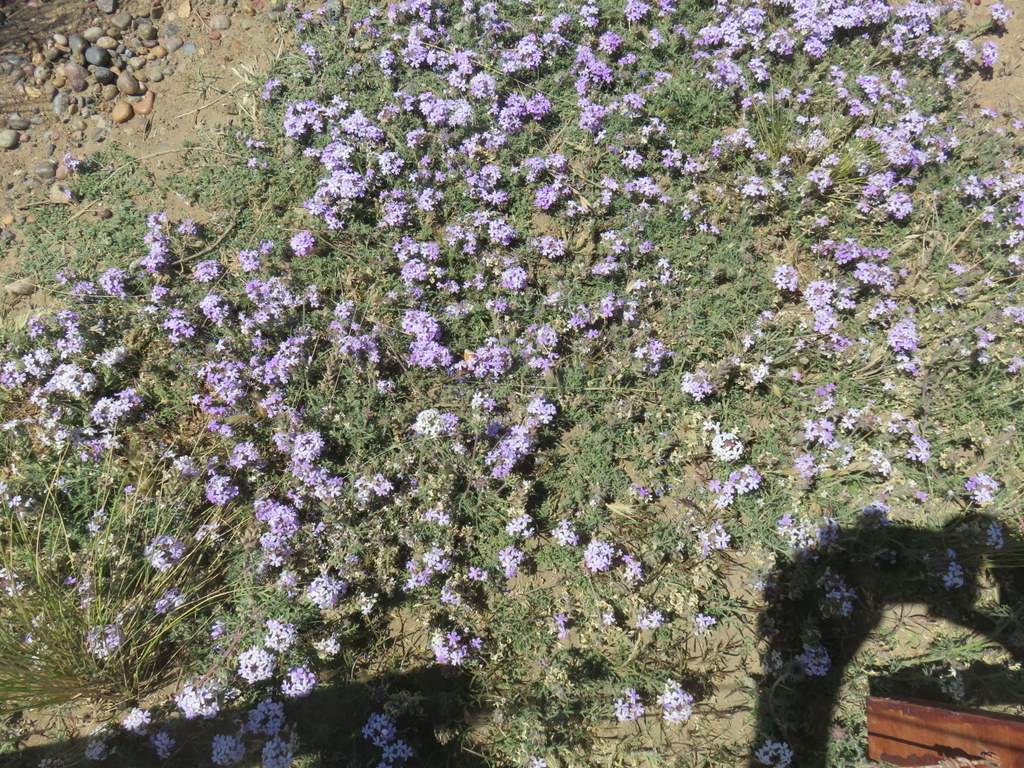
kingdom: Plantae
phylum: Tracheophyta
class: Magnoliopsida
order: Lamiales
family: Verbenaceae
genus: Verbena
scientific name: Verbena tenera
